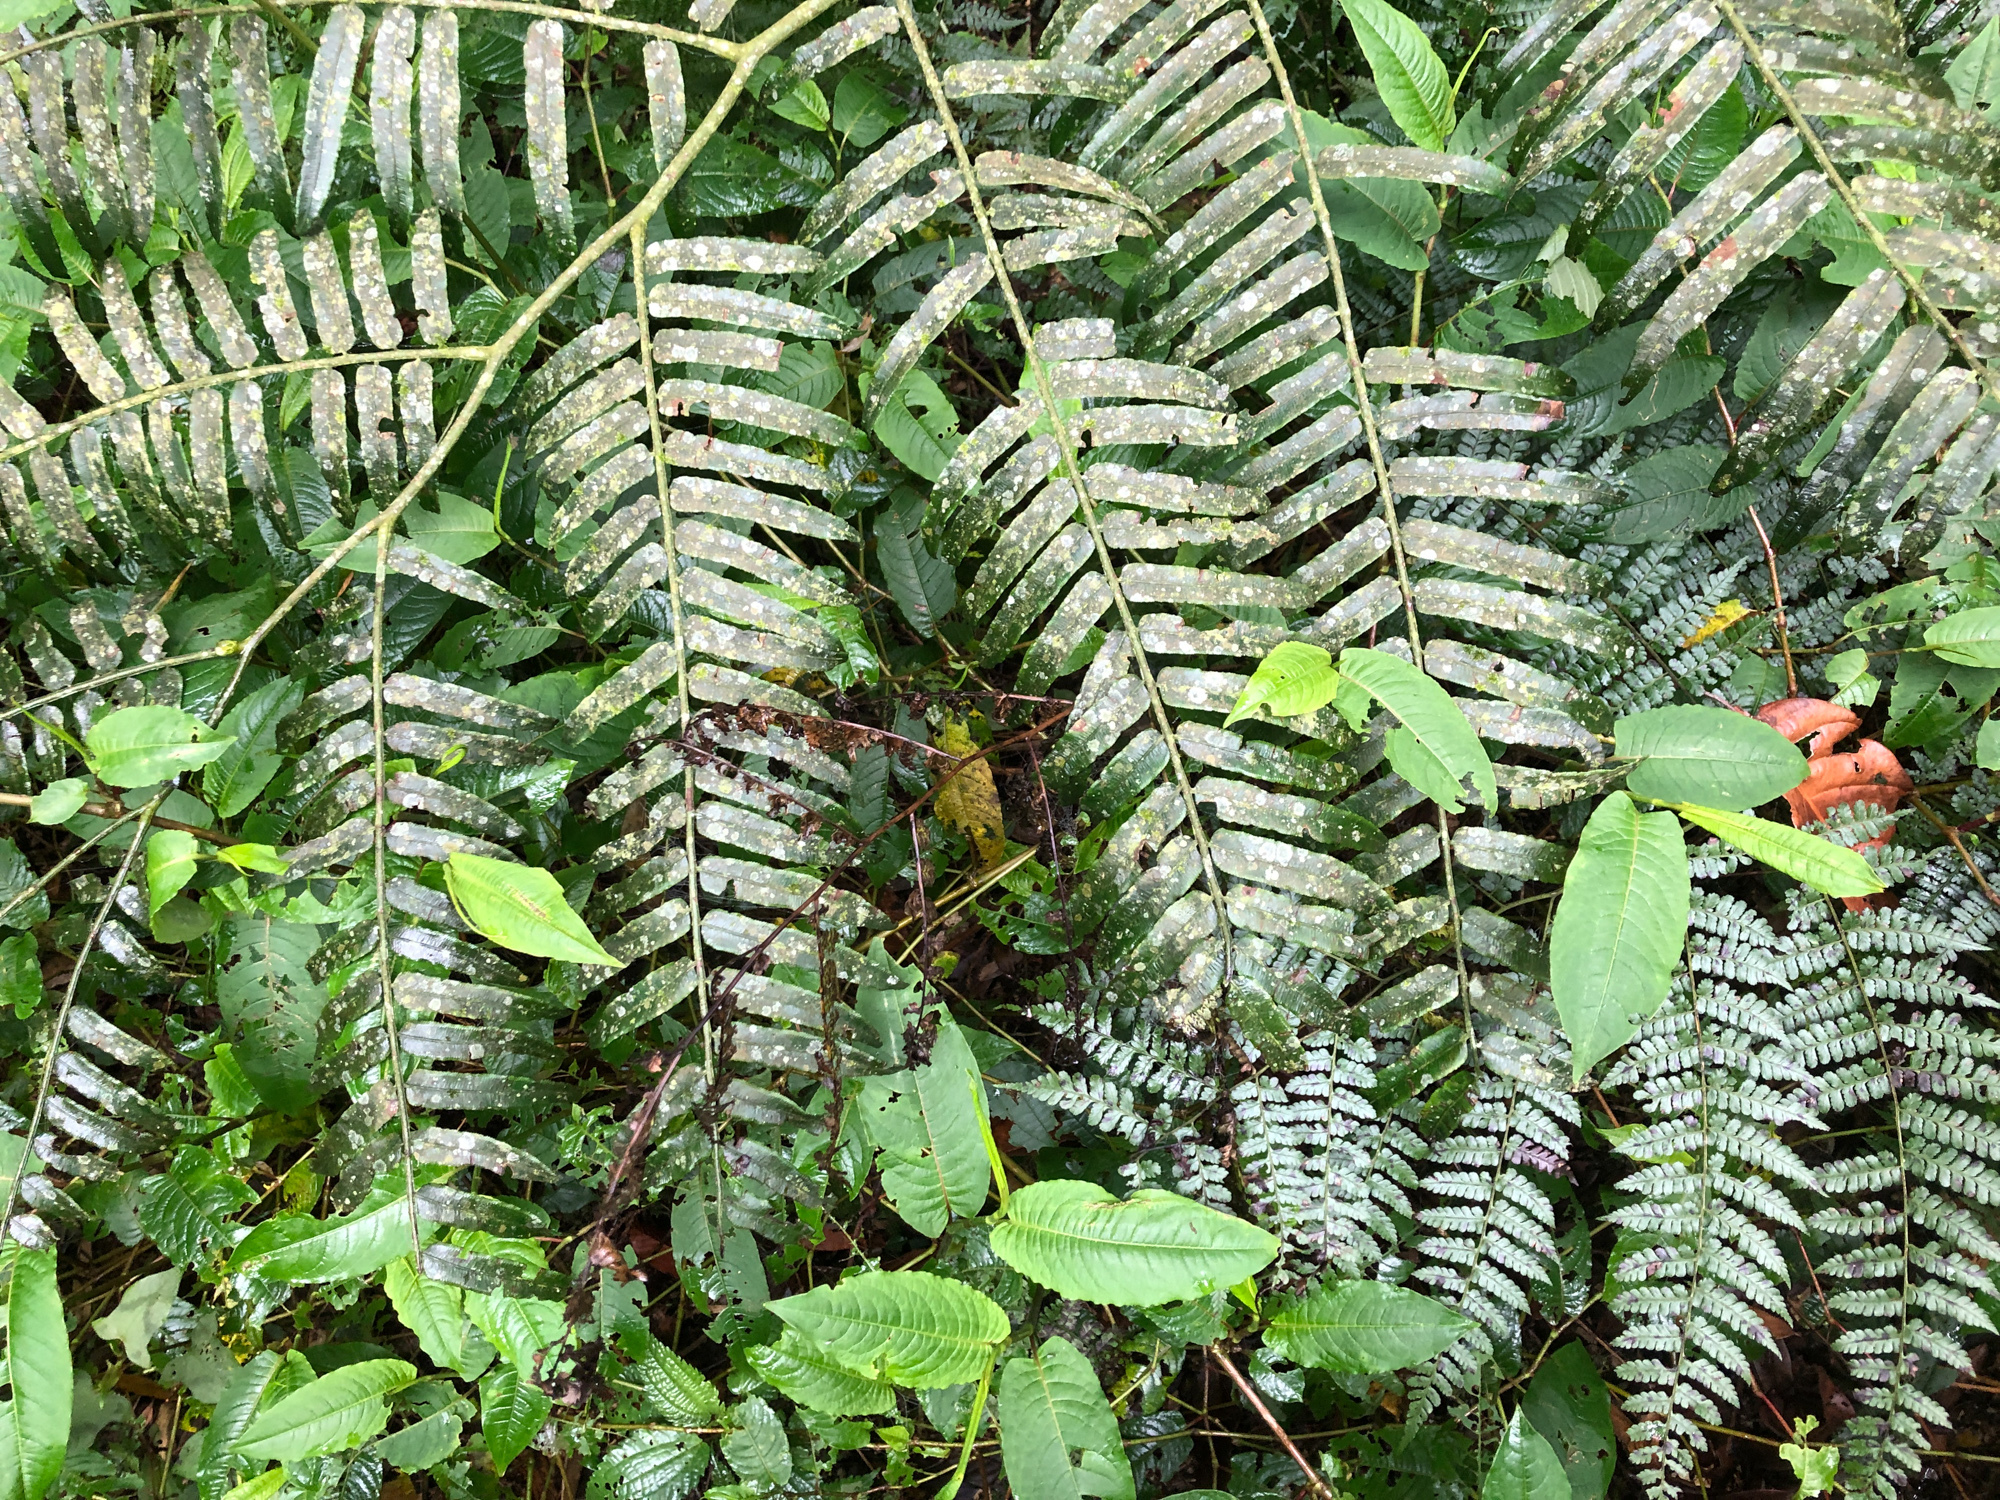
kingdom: Plantae
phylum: Tracheophyta
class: Polypodiopsida
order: Marattiales
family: Marattiaceae
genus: Angiopteris
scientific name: Angiopteris lygodiifolia
